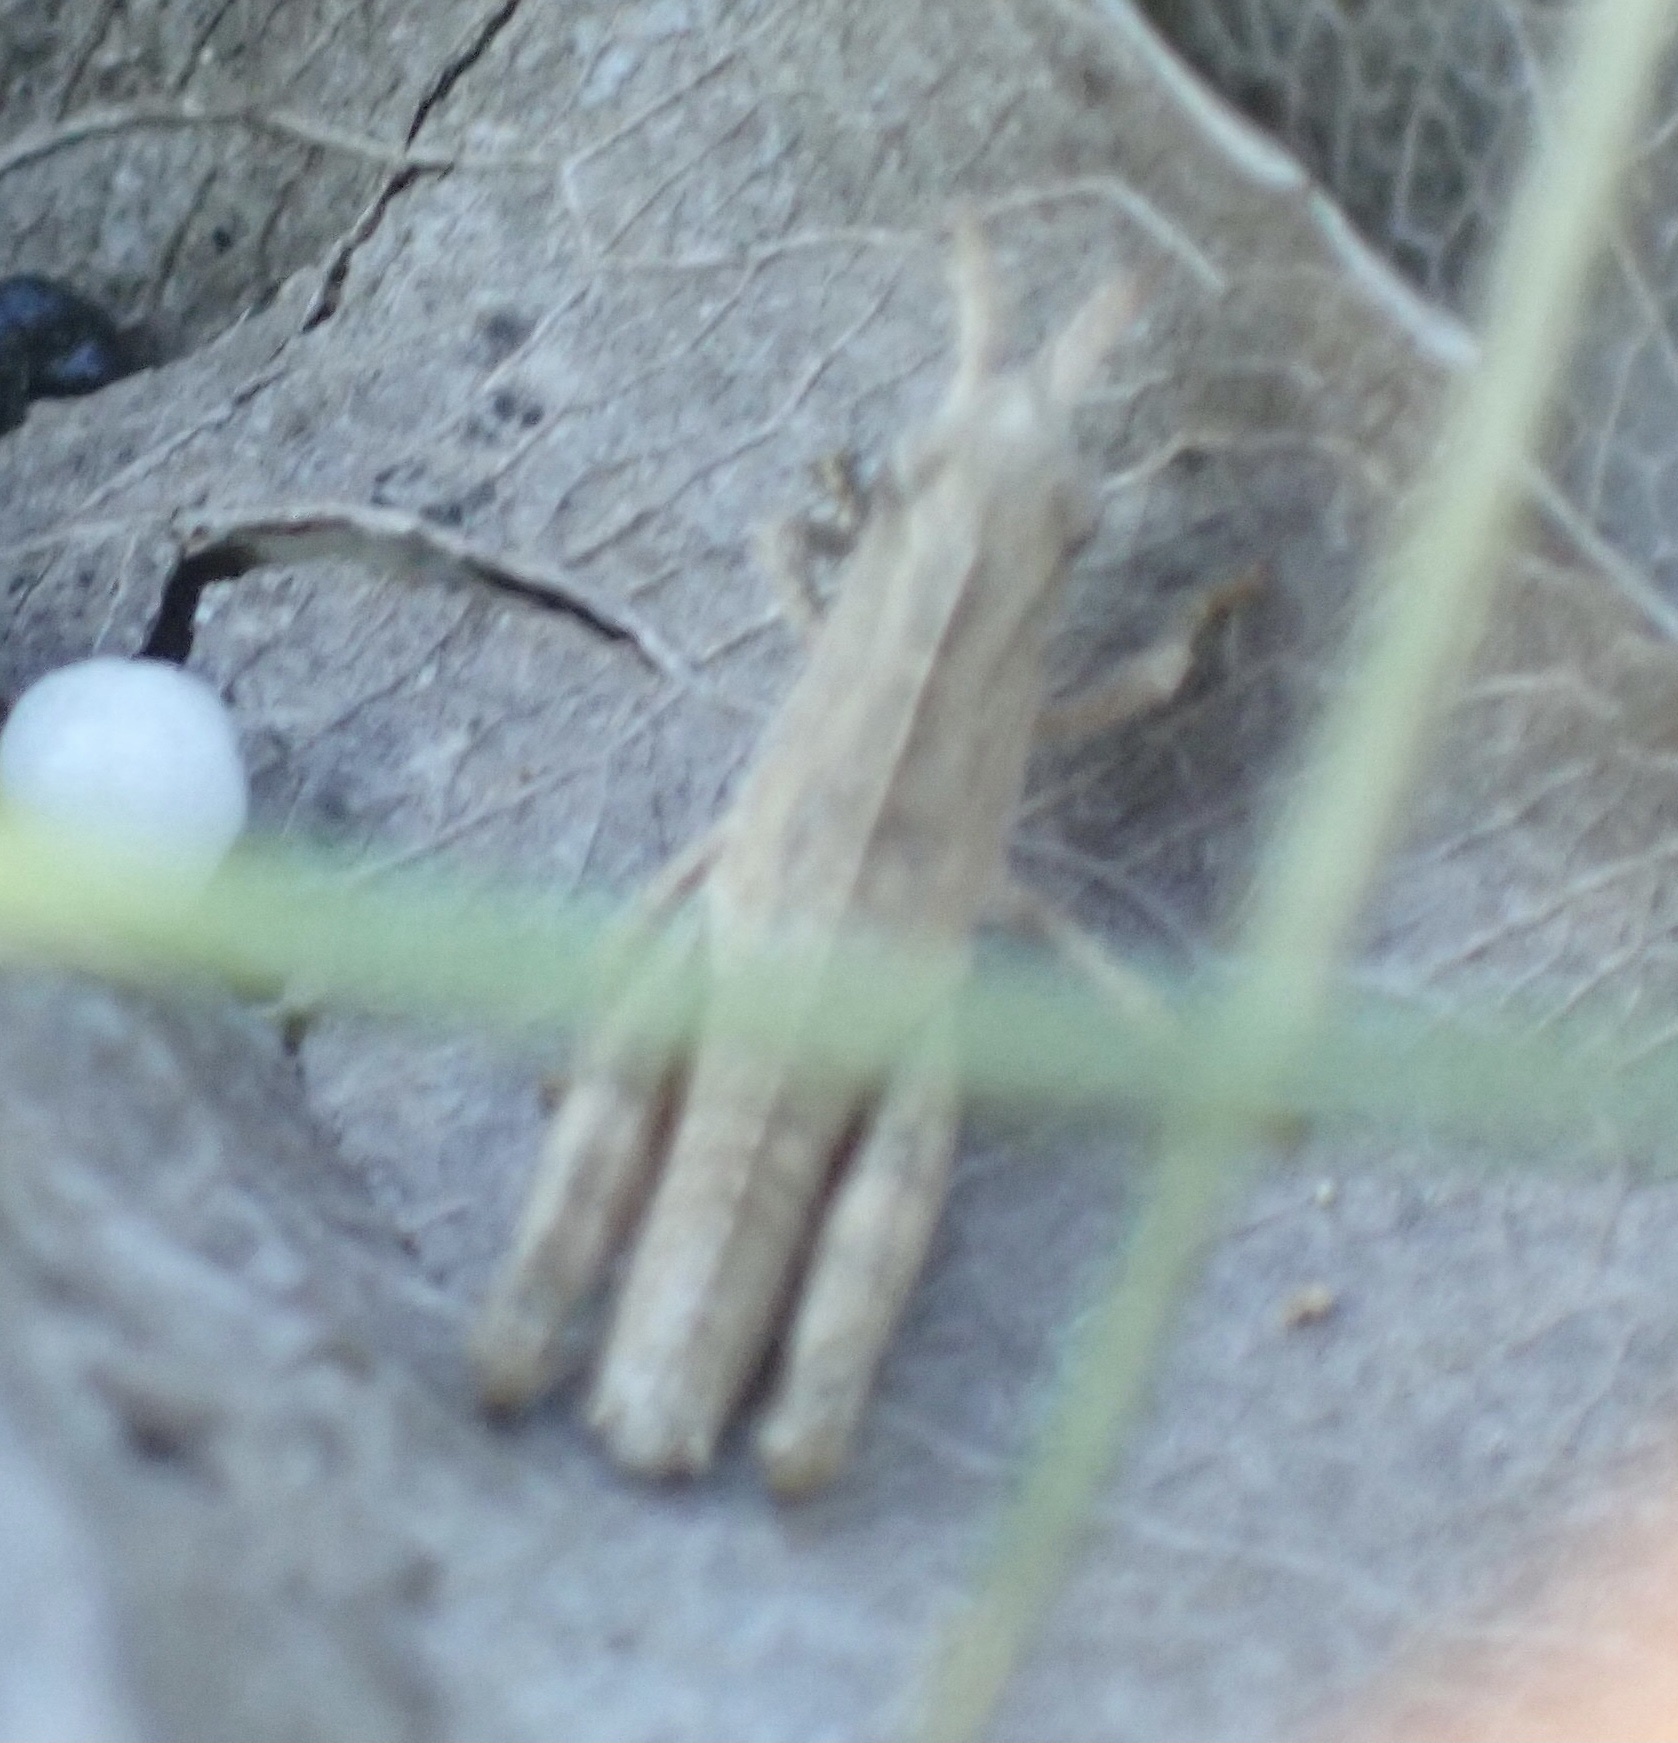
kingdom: Animalia
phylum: Arthropoda
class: Insecta
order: Orthoptera
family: Acrididae
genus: Chortophaga
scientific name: Chortophaga viridifasciata
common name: Green-striped grasshopper
